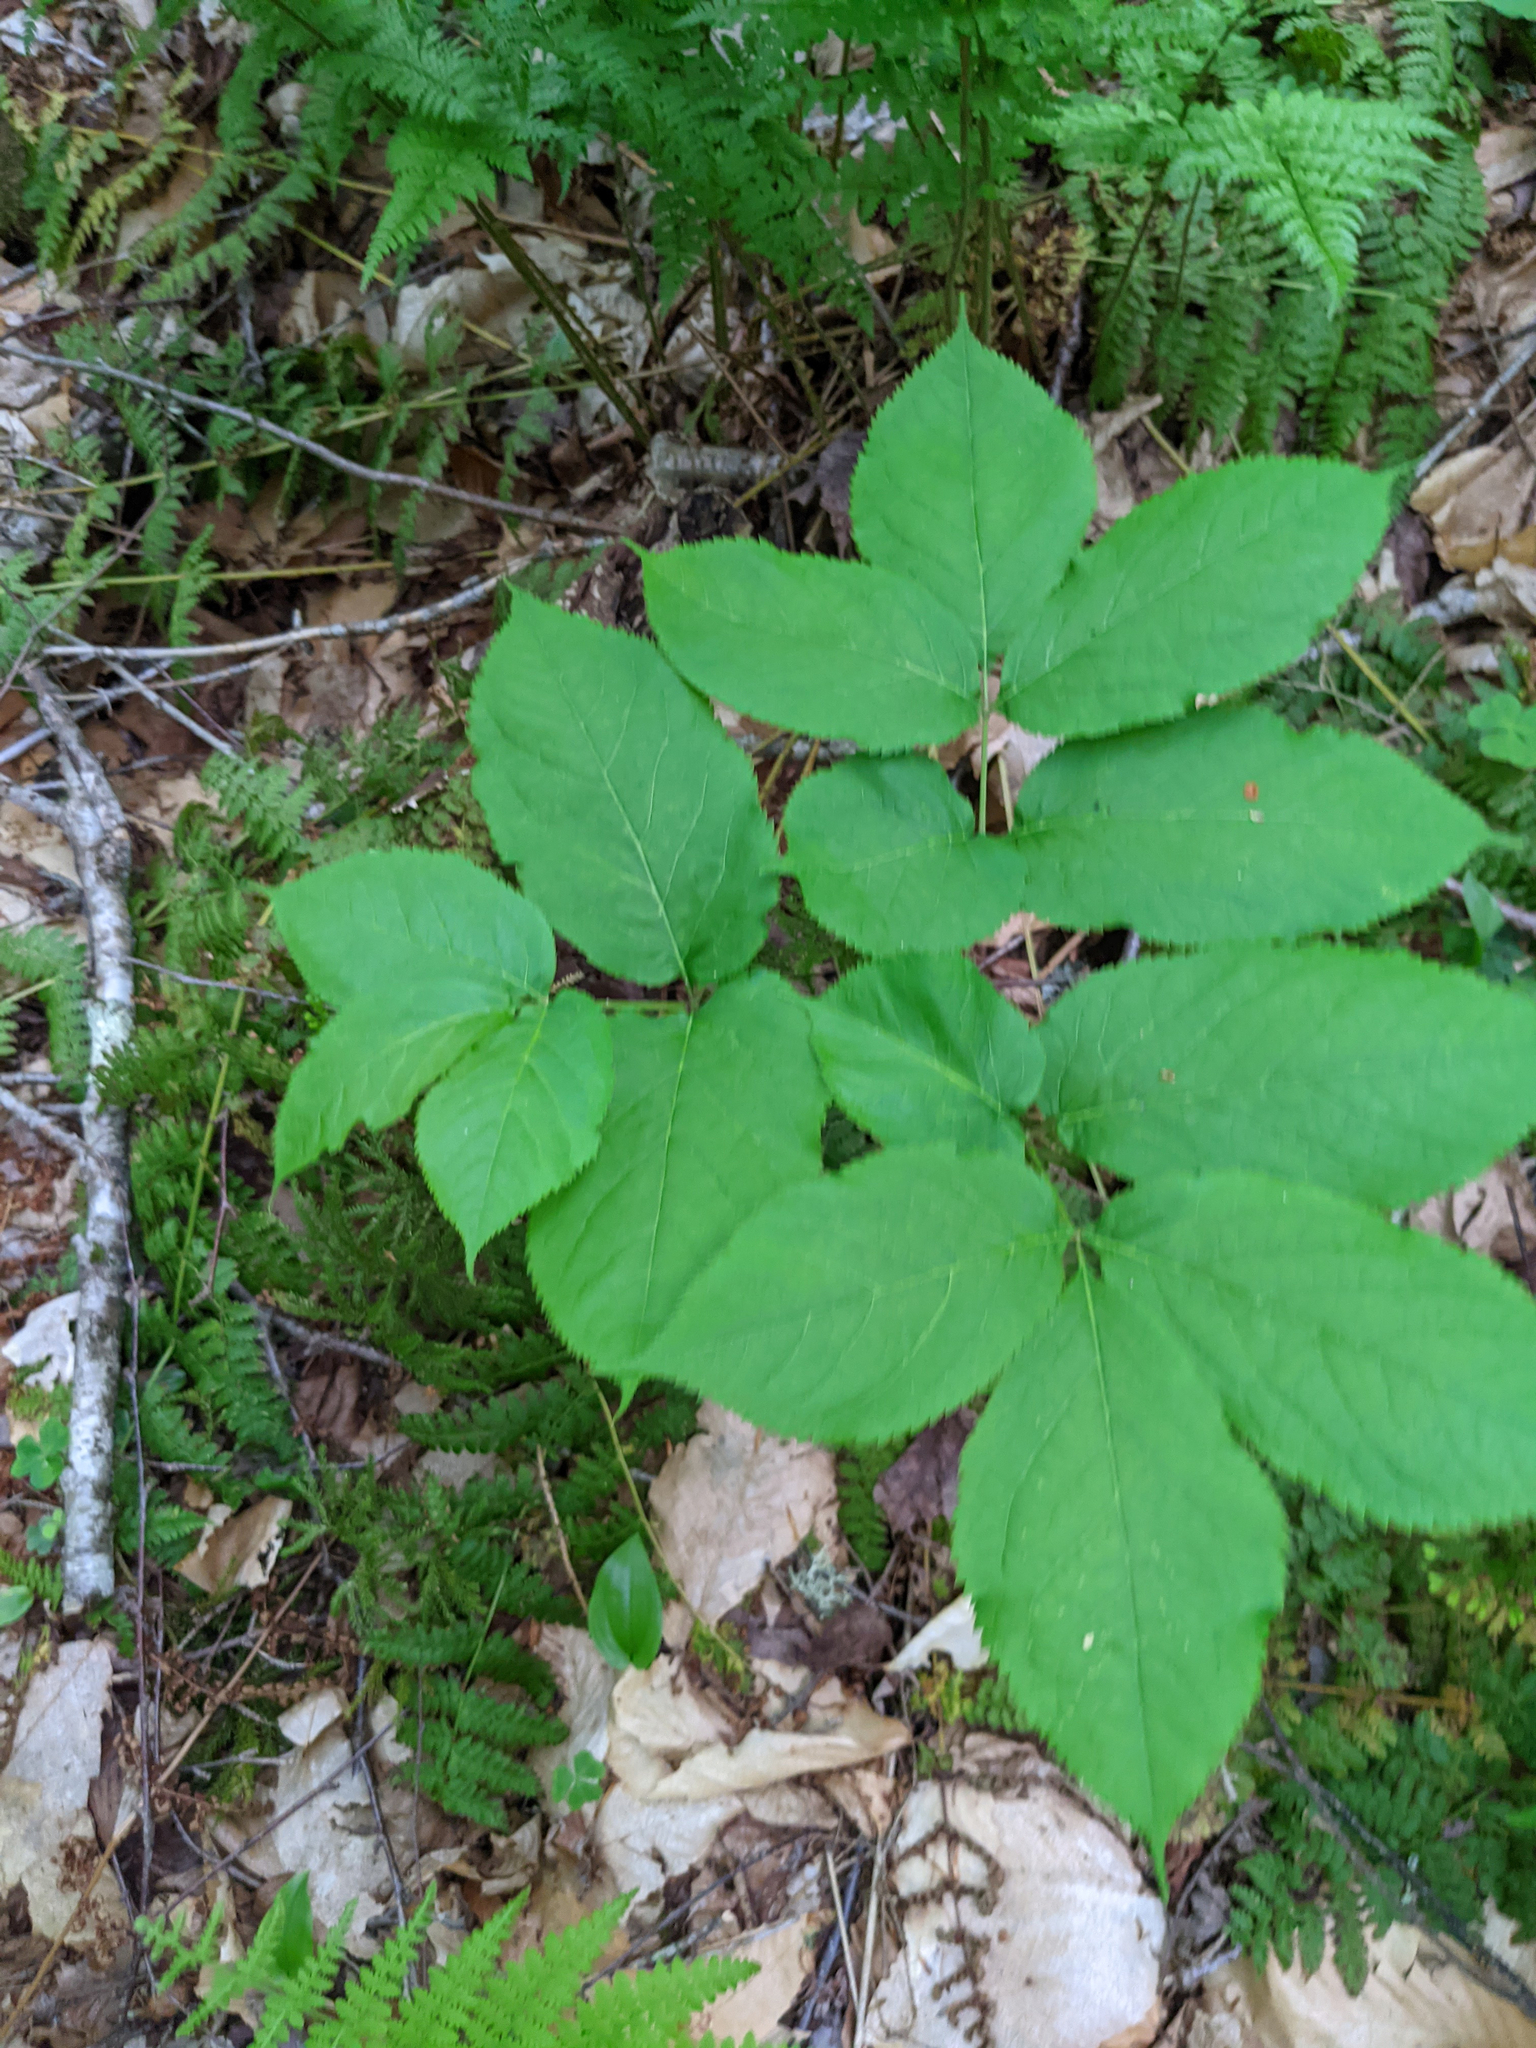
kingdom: Plantae
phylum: Tracheophyta
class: Magnoliopsida
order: Apiales
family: Araliaceae
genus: Aralia
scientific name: Aralia nudicaulis
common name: Wild sarsaparilla
